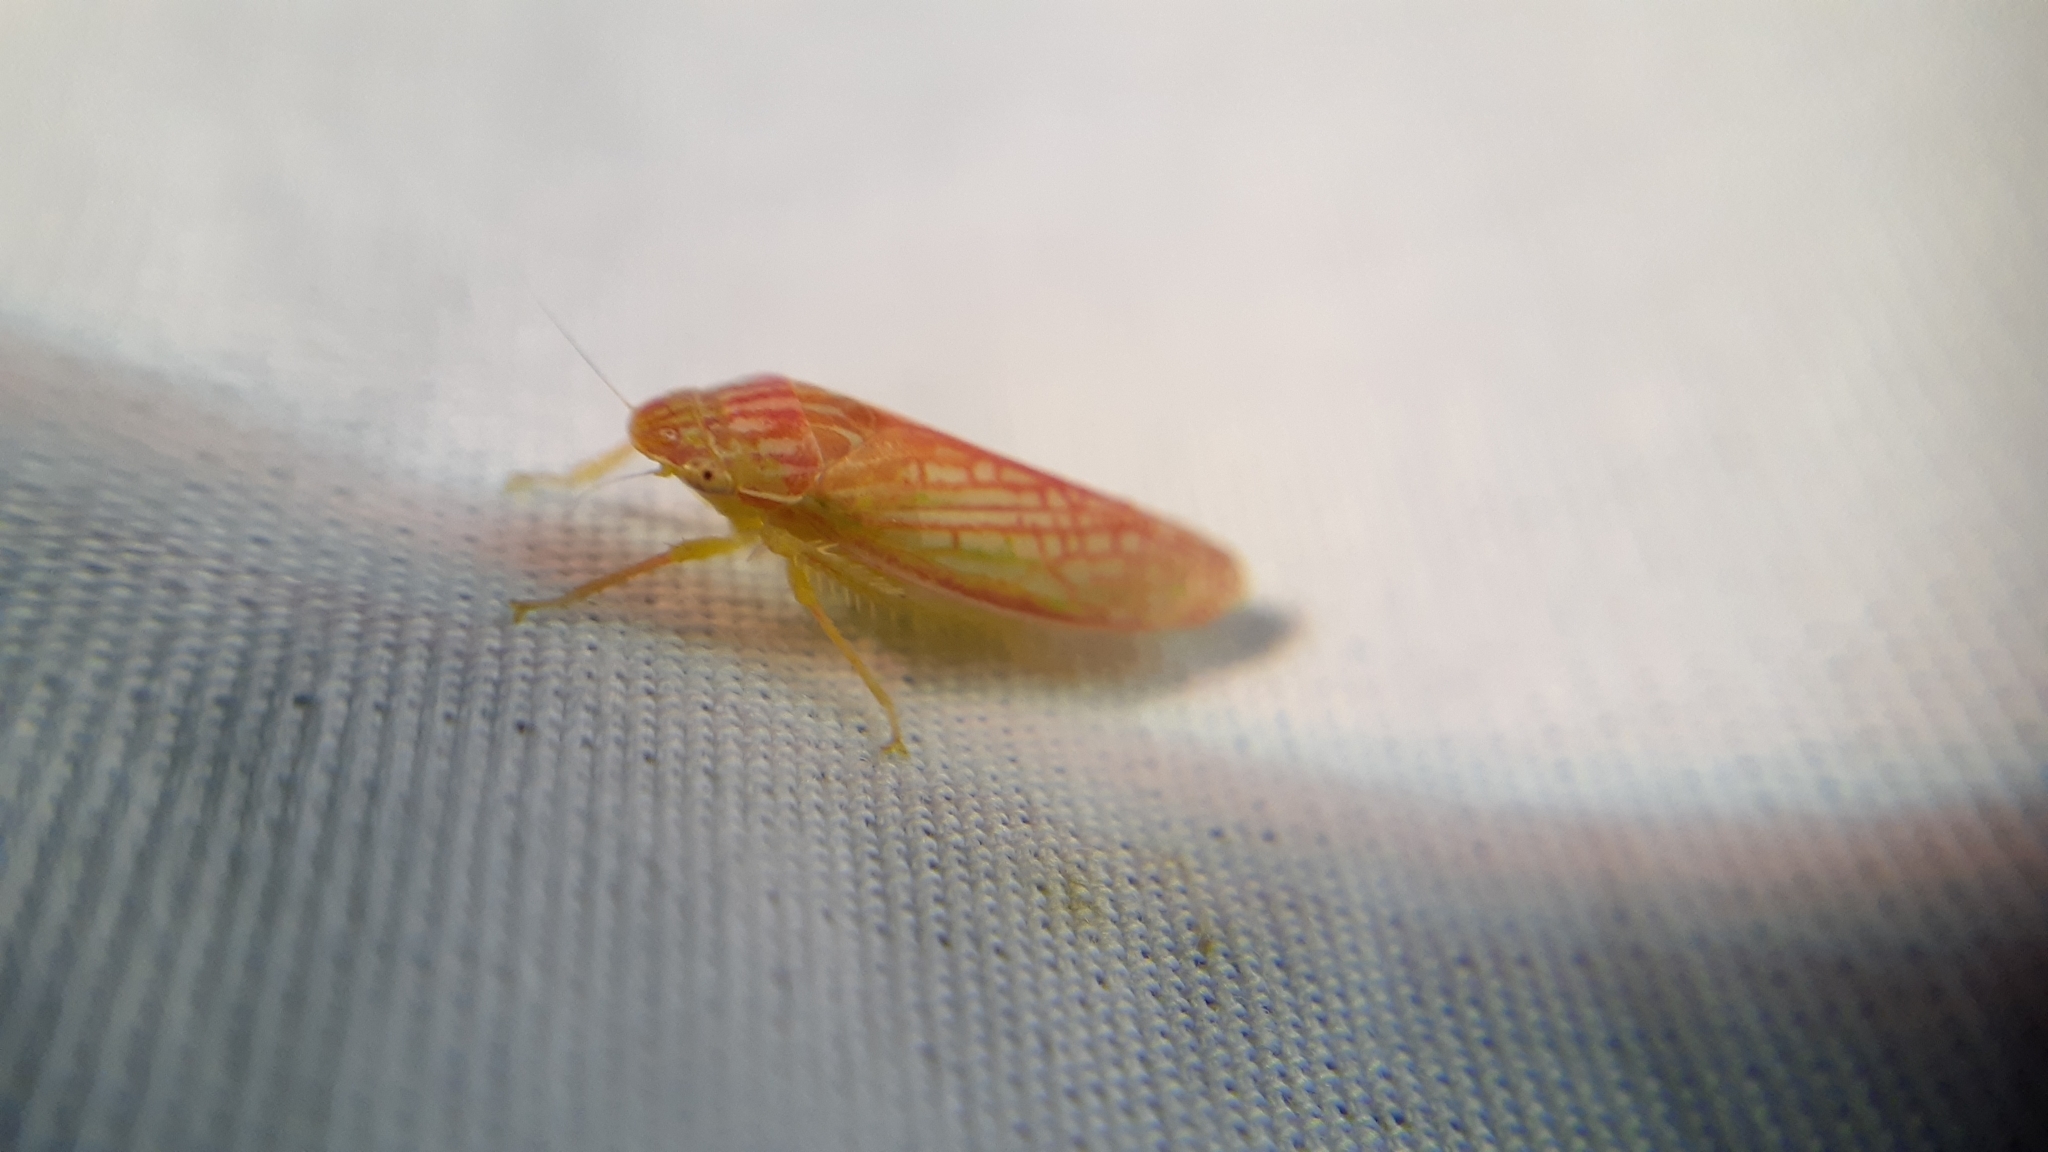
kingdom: Animalia
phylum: Arthropoda
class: Insecta
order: Hemiptera
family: Cicadellidae
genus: Gyponana
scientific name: Gyponana octolineata
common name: Eight-lined leafhopper
